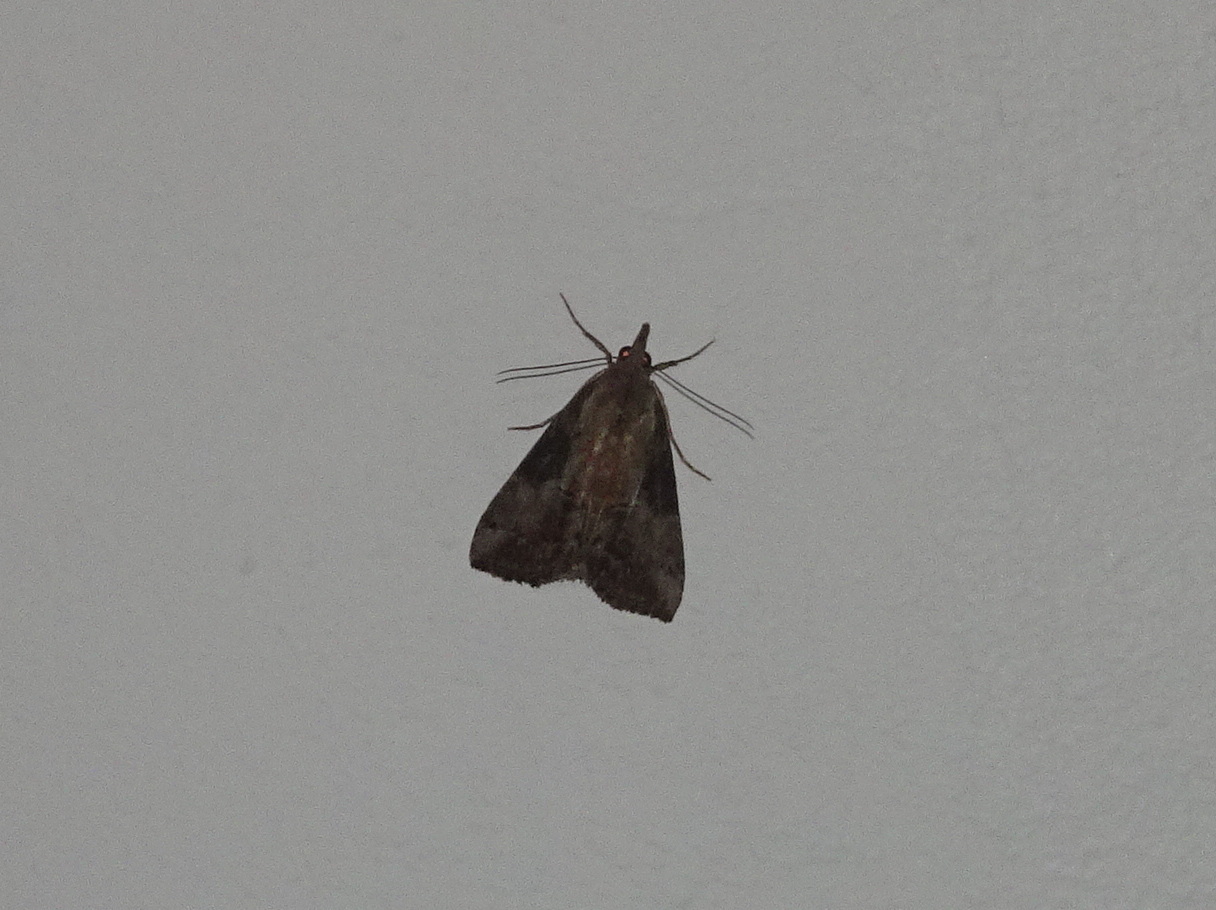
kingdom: Animalia
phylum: Arthropoda
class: Insecta
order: Lepidoptera
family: Erebidae
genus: Hypena
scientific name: Hypena scabra
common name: Green cloverworm
